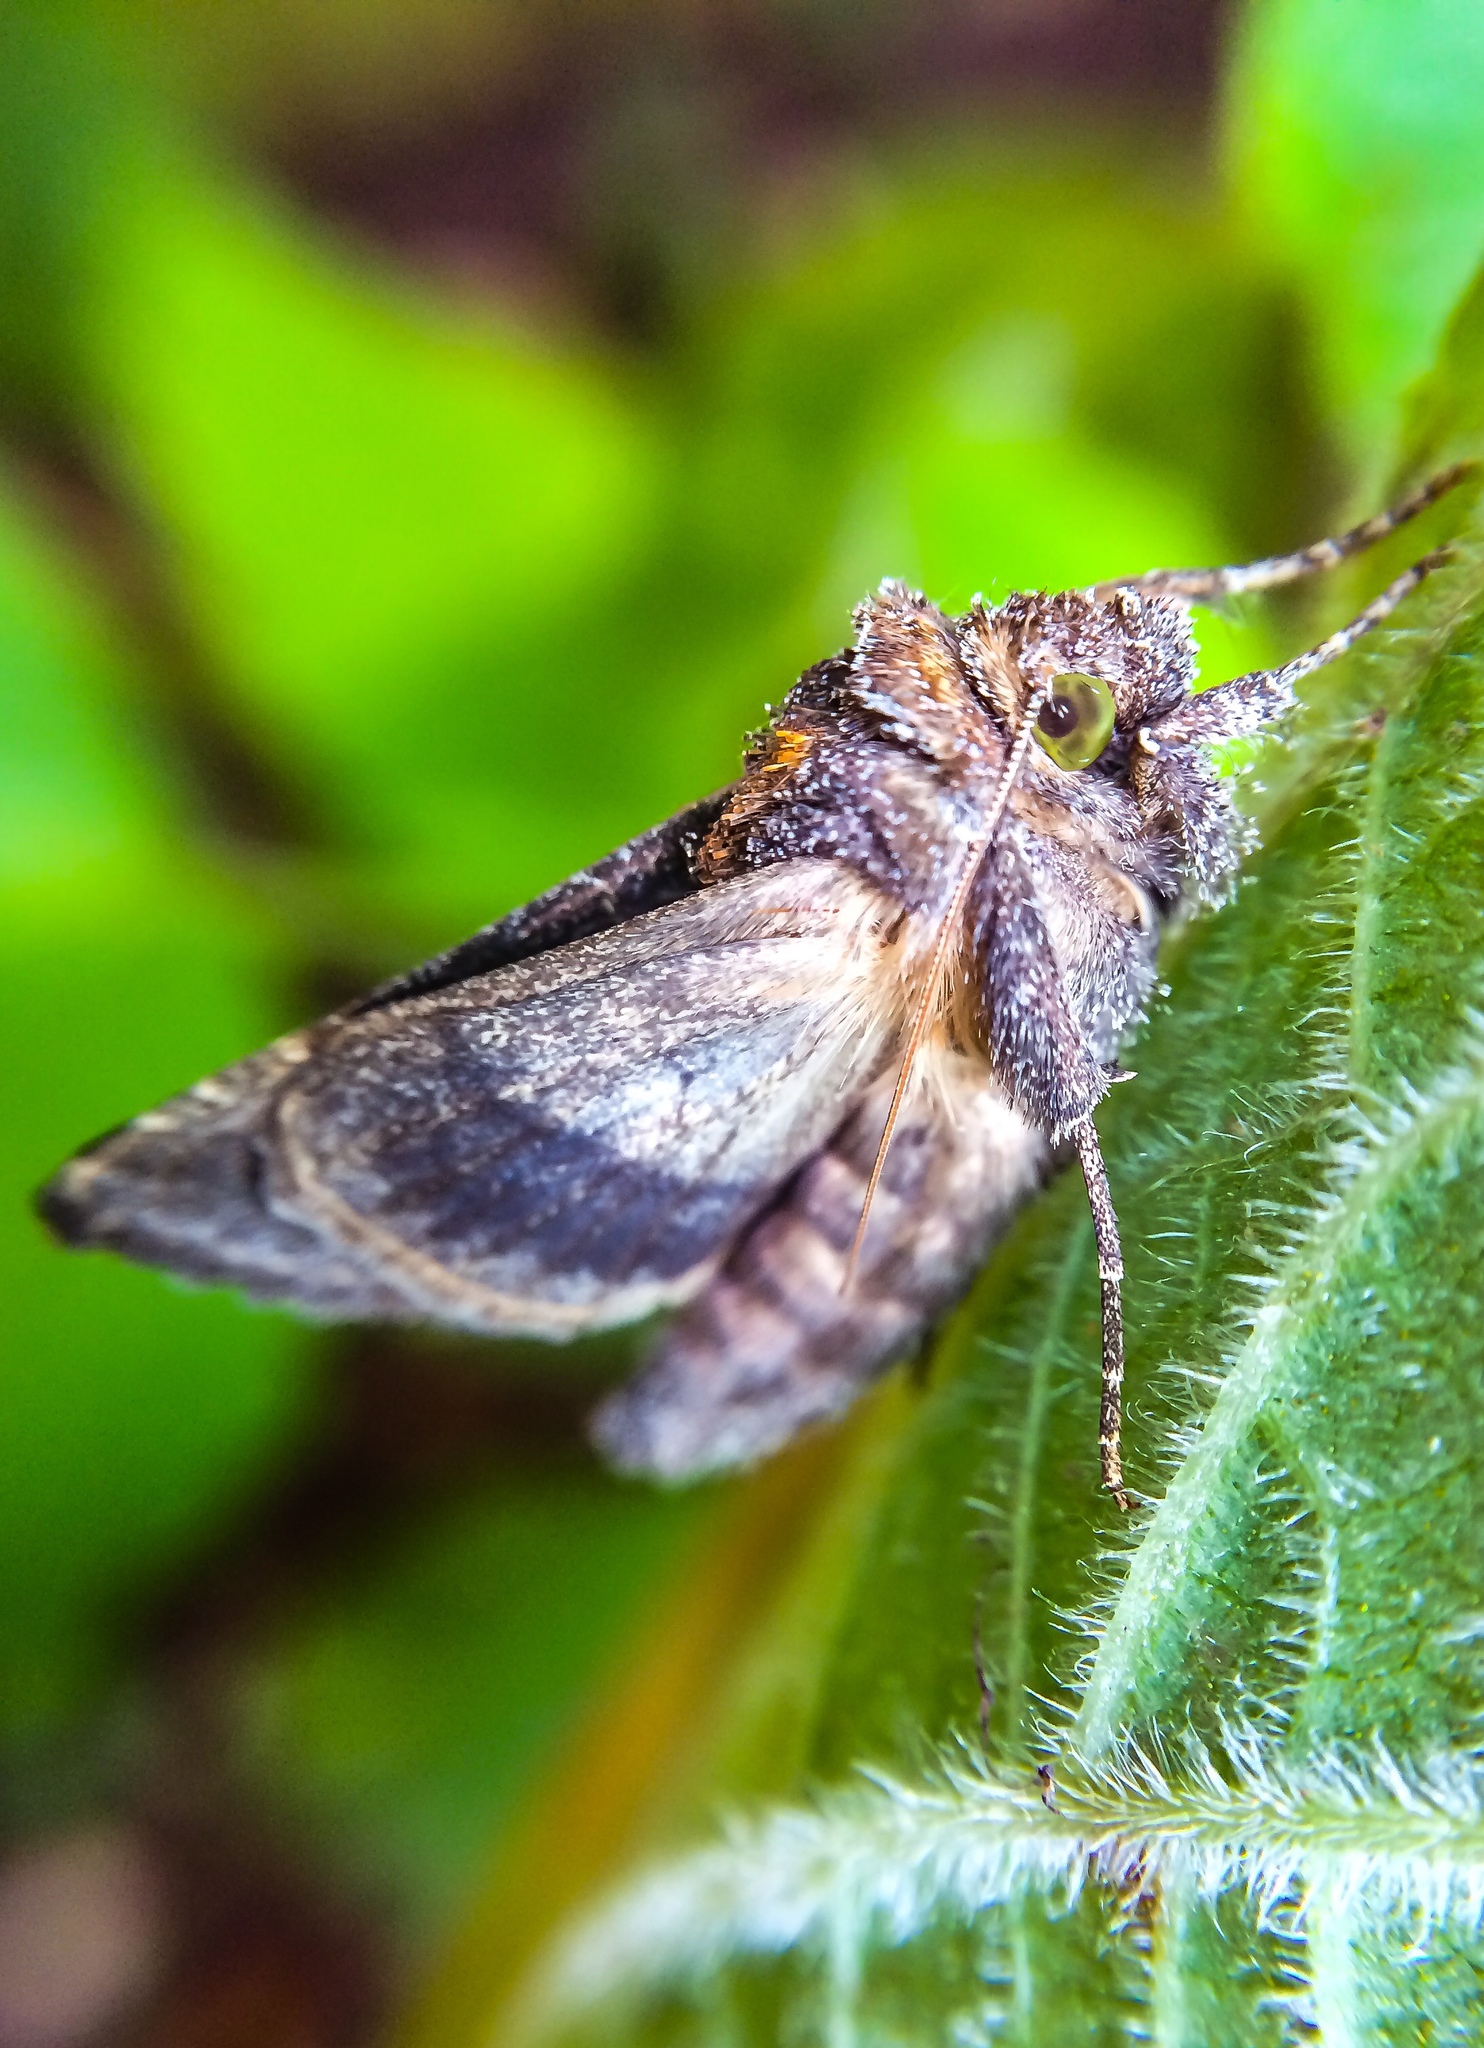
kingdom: Animalia
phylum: Arthropoda
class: Insecta
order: Lepidoptera
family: Noctuidae
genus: Thysanoplusia
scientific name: Thysanoplusia spoliata
